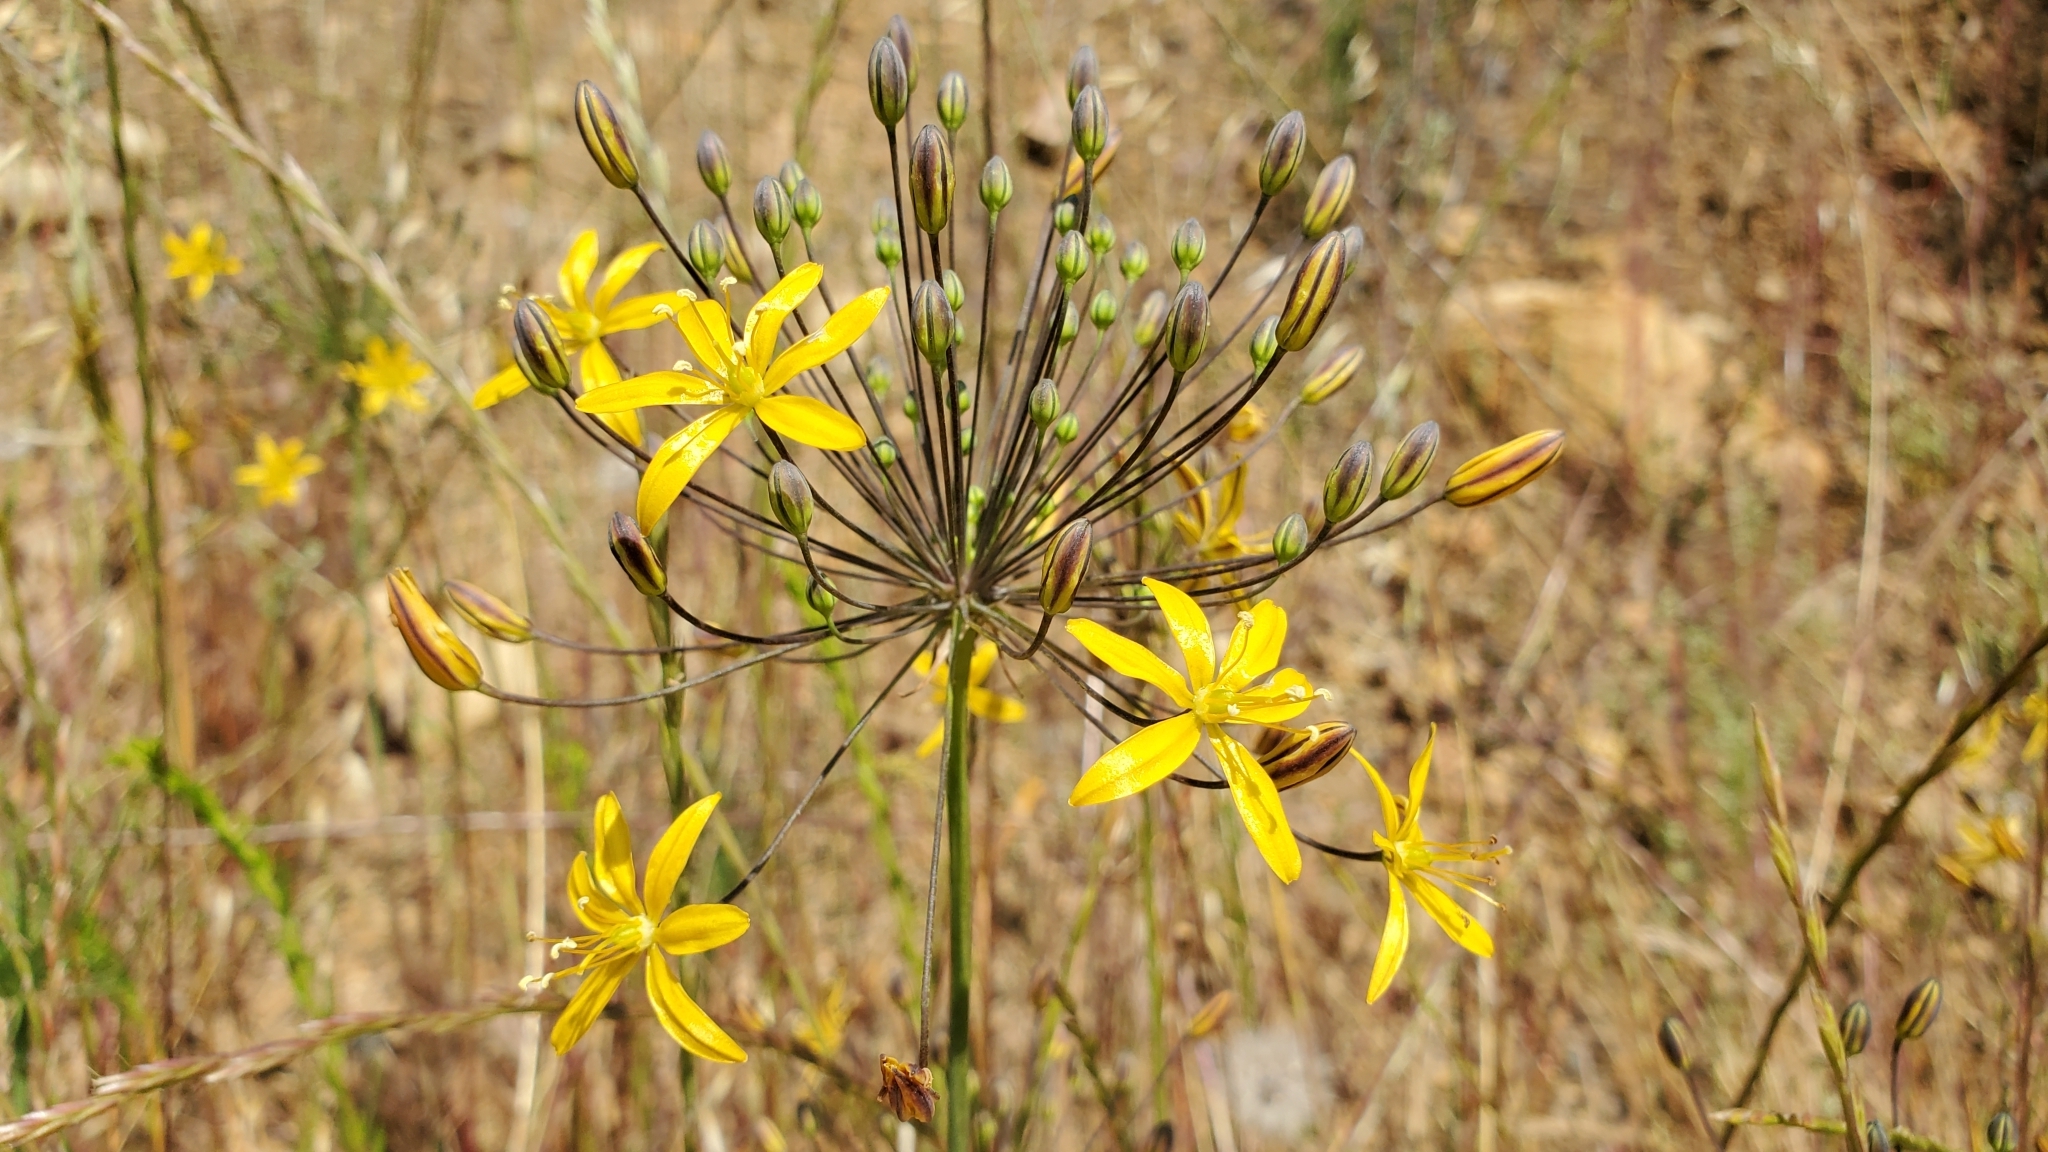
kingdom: Plantae
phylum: Tracheophyta
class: Liliopsida
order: Asparagales
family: Asparagaceae
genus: Bloomeria
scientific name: Bloomeria crocea
